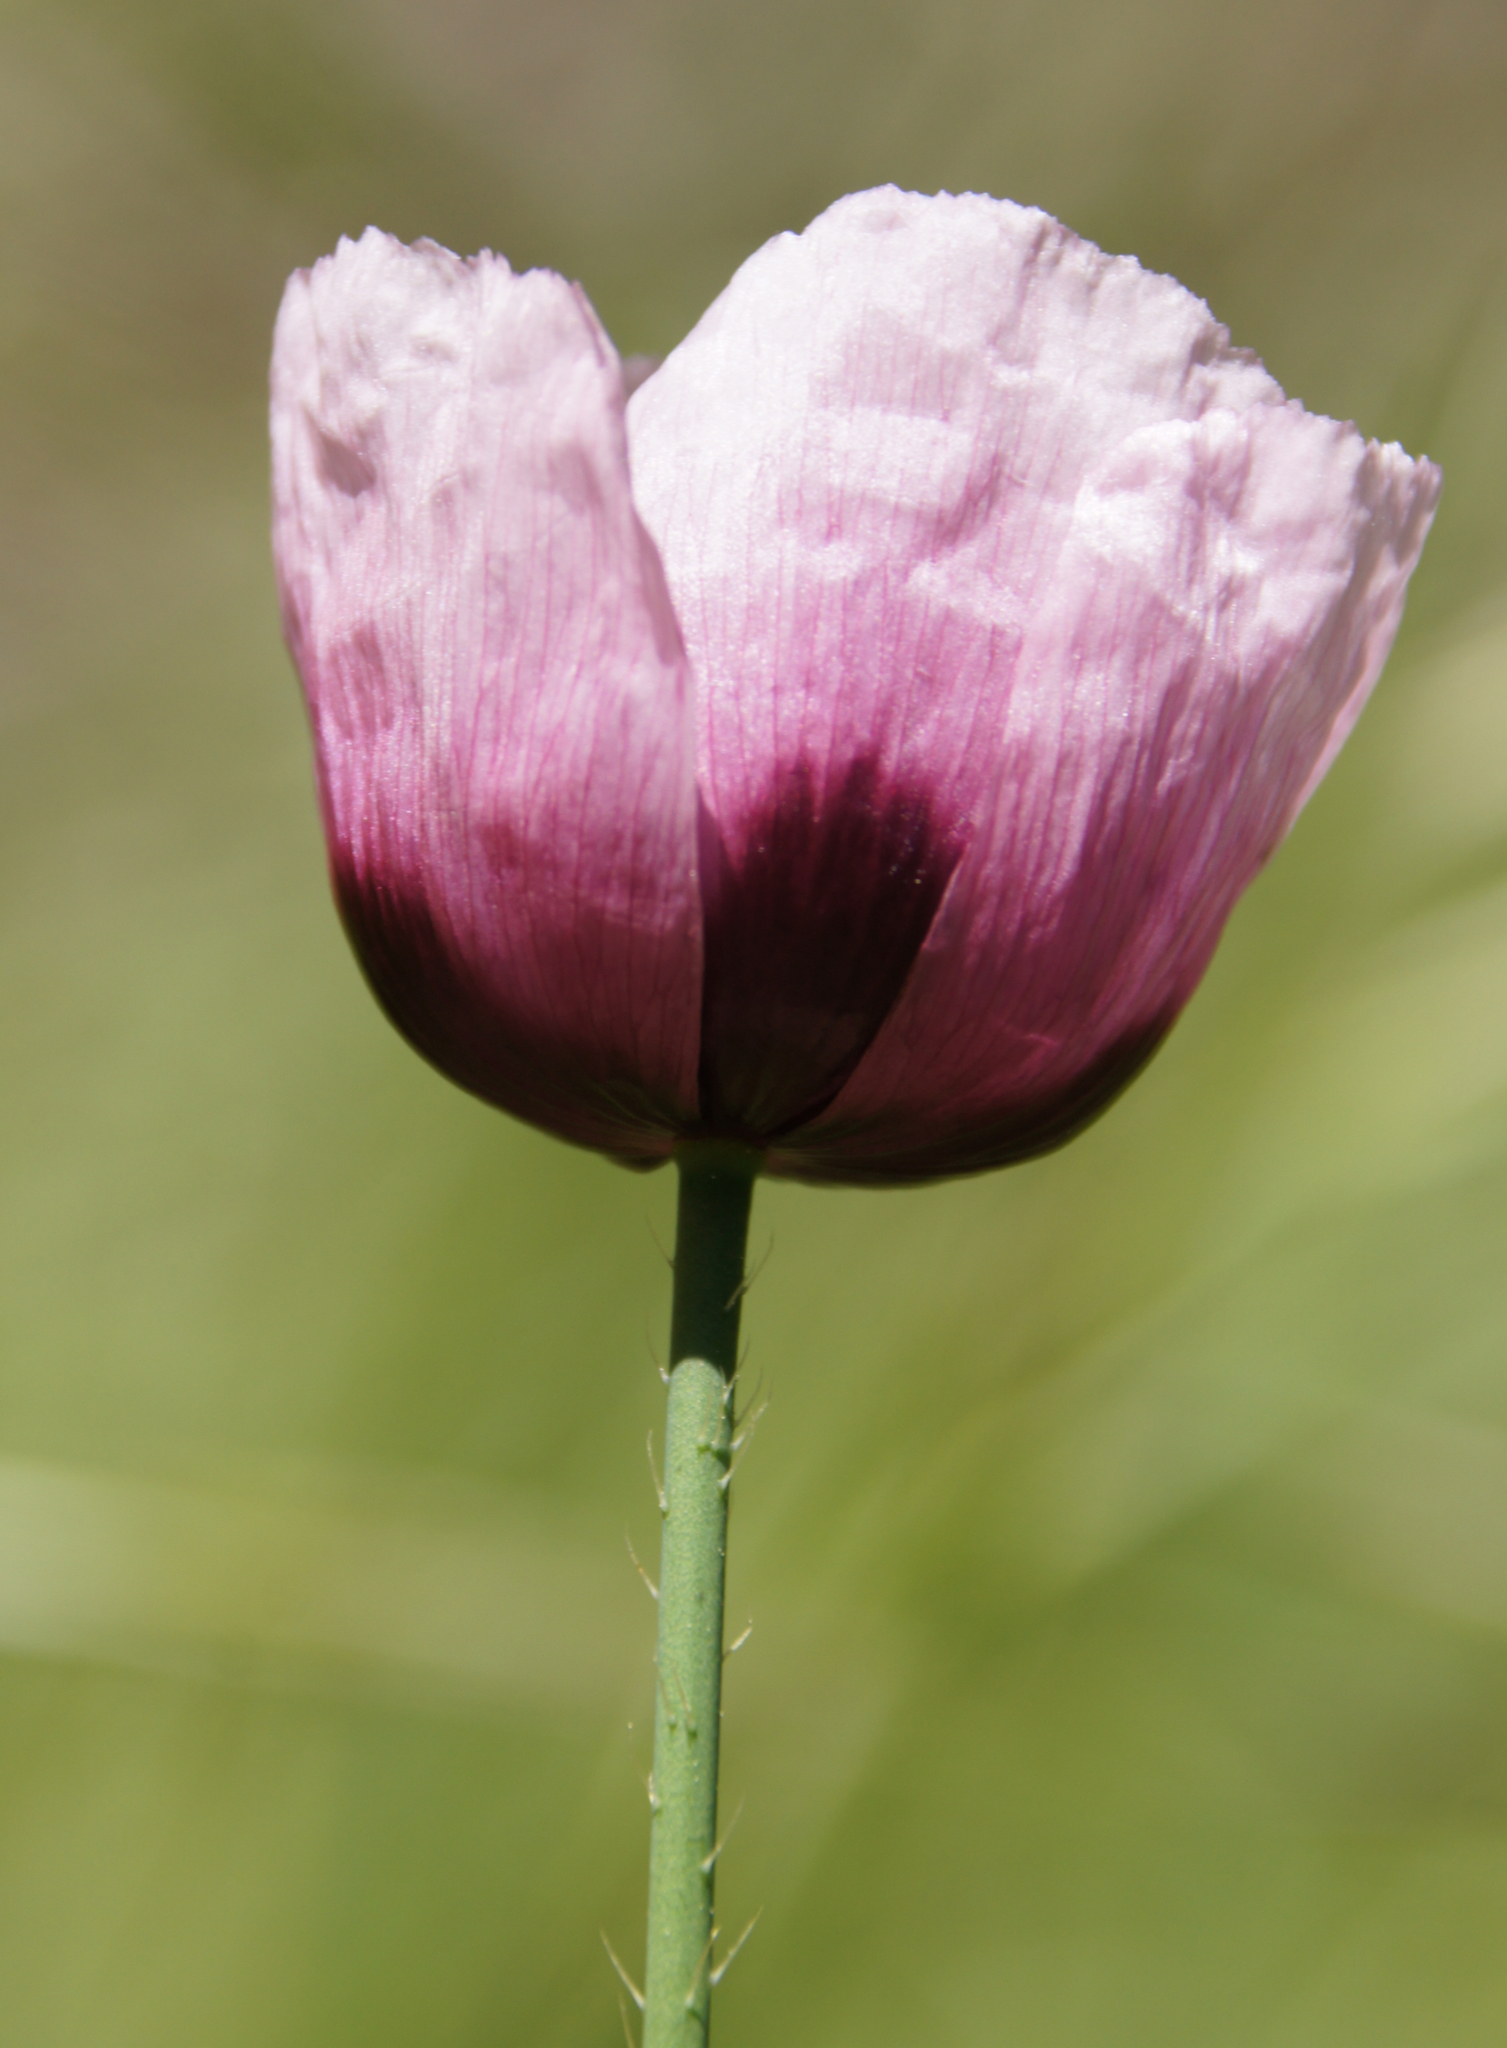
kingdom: Plantae
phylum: Tracheophyta
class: Magnoliopsida
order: Ranunculales
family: Papaveraceae
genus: Papaver
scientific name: Papaver somniferum
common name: Opium poppy
